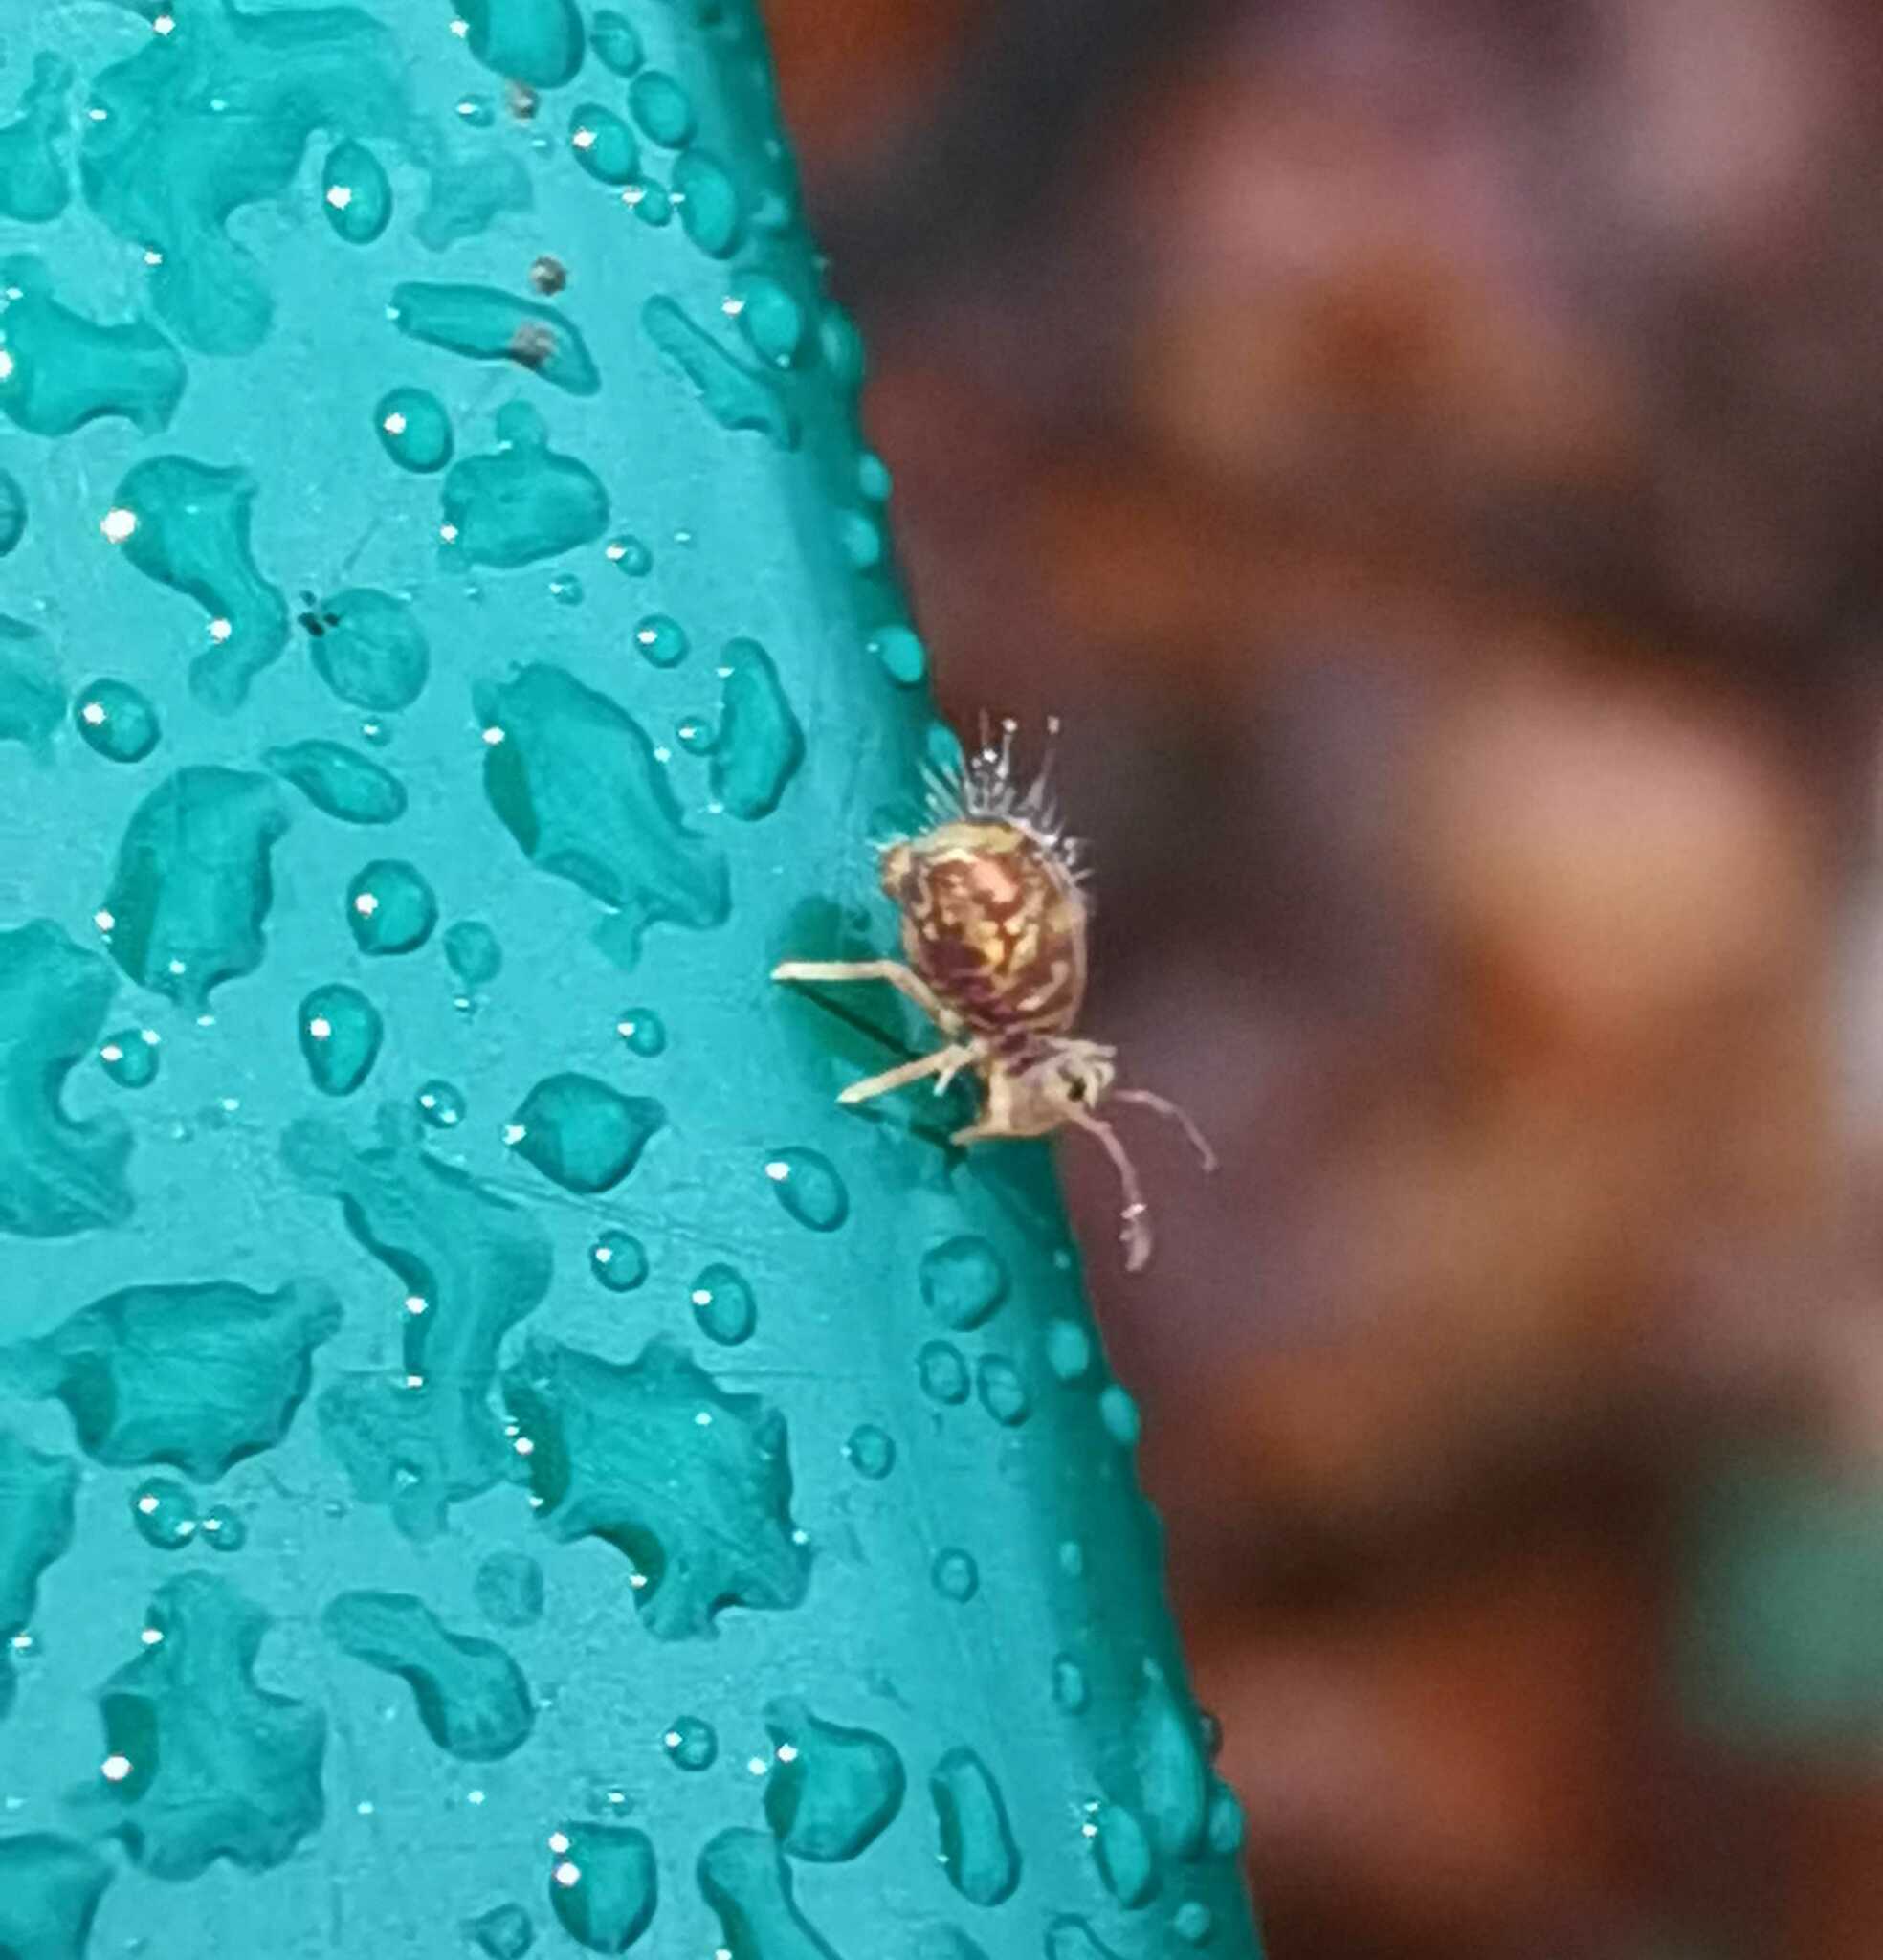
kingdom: Animalia
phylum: Arthropoda
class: Collembola
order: Symphypleona
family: Dicyrtomidae
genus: Dicyrtomina
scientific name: Dicyrtomina ornata
